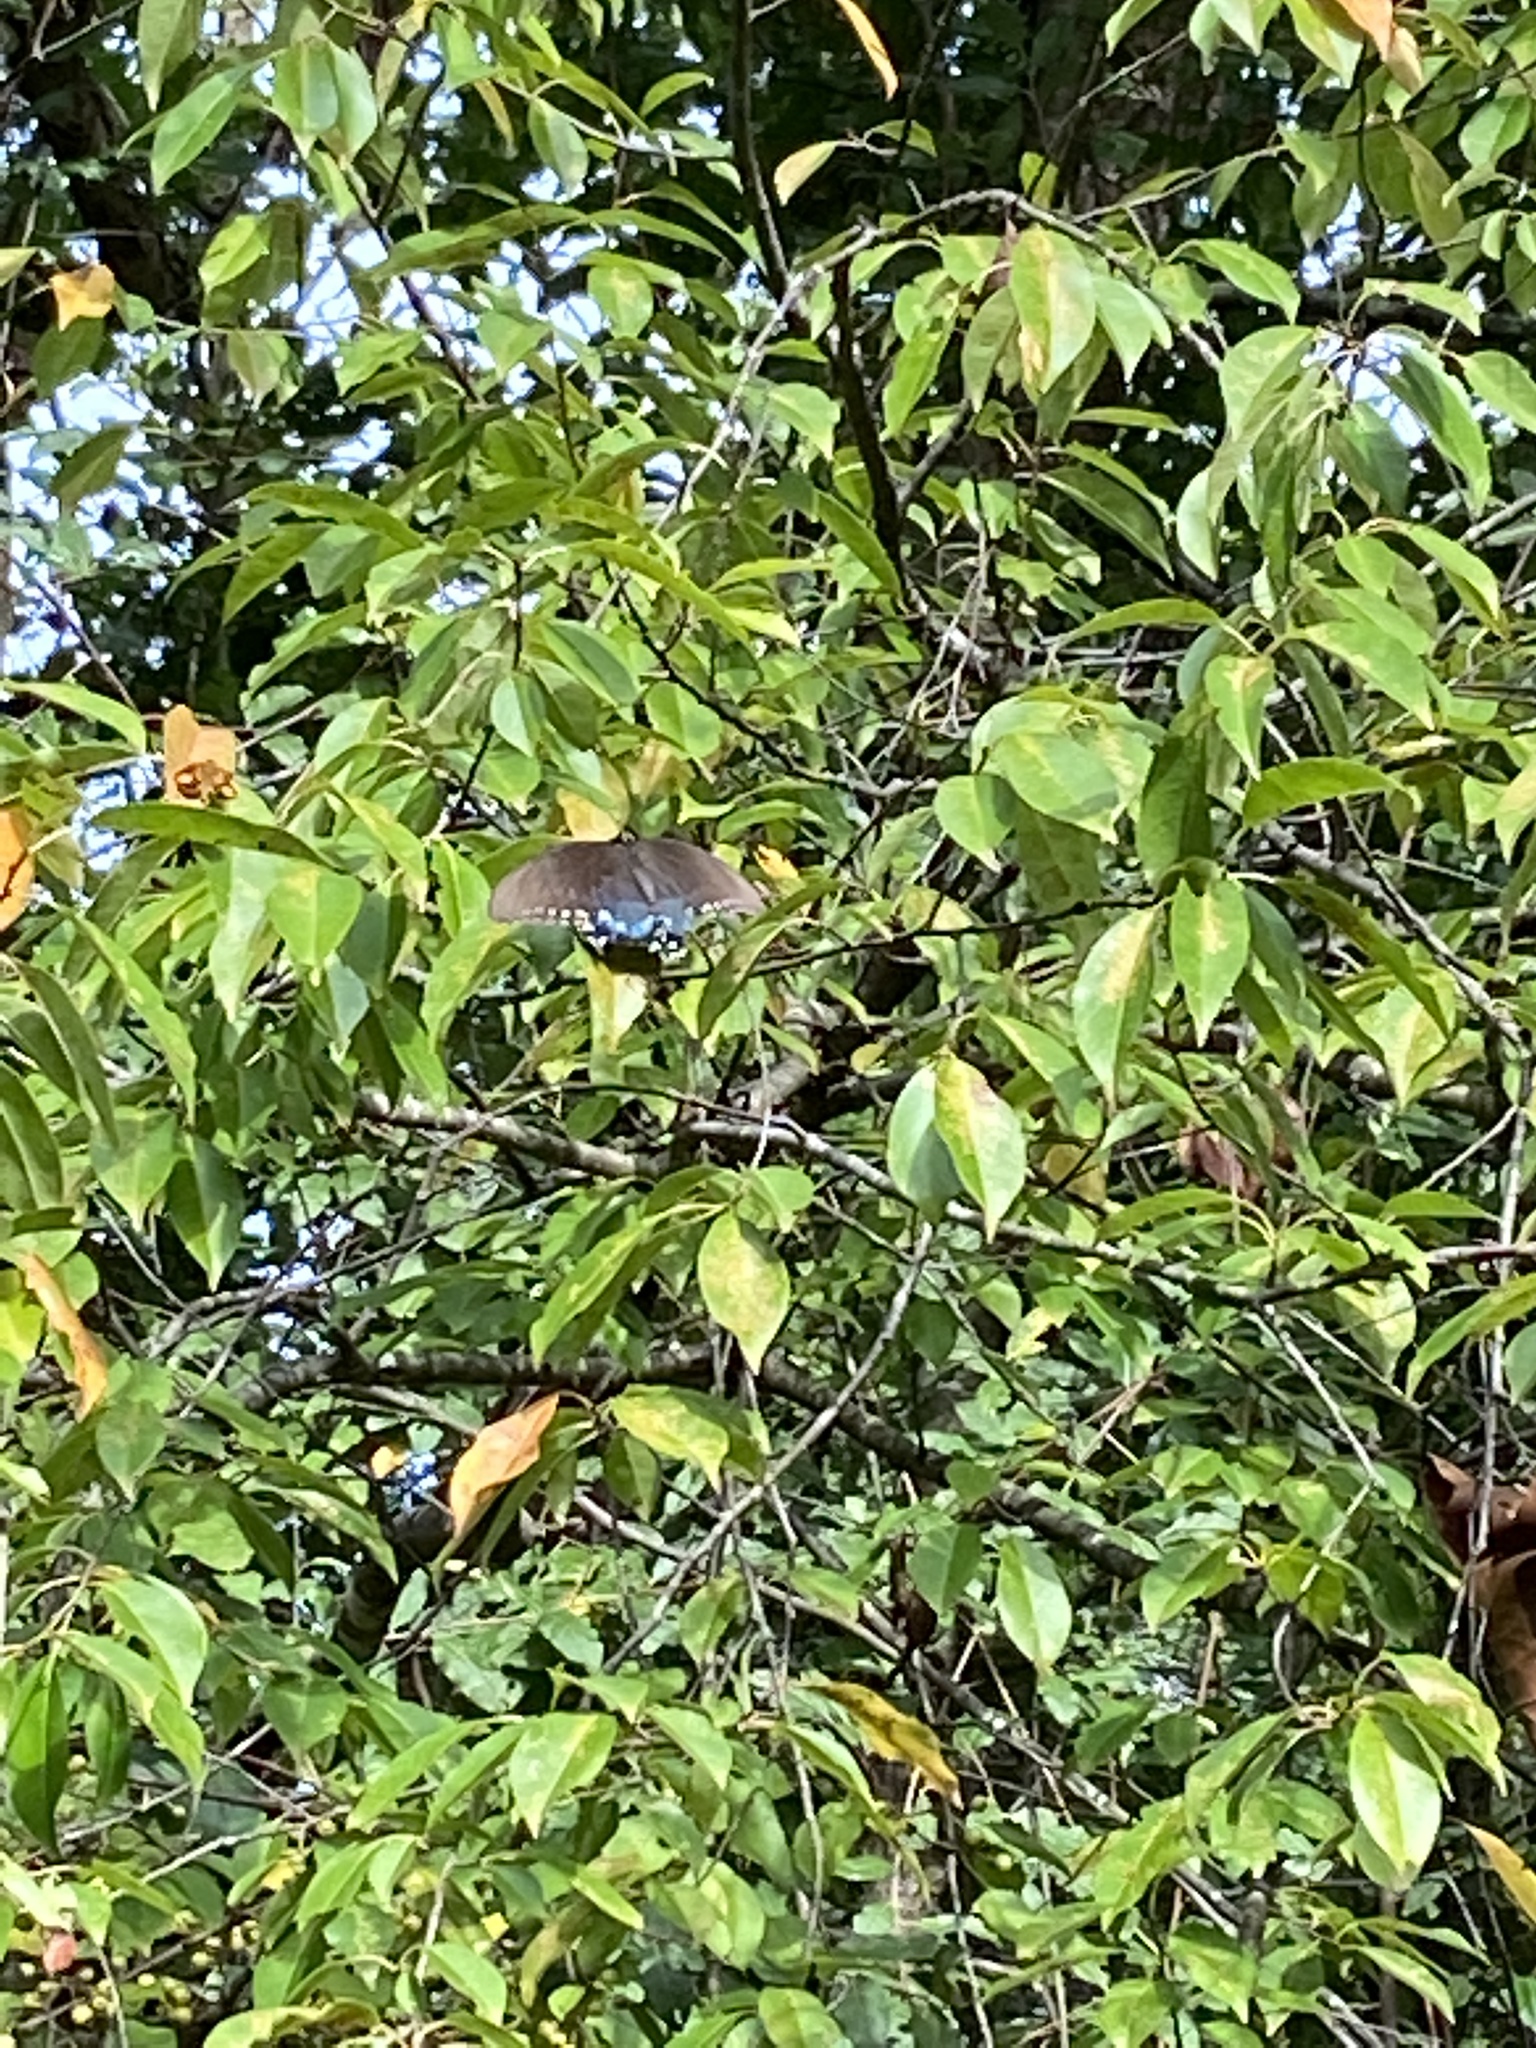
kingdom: Animalia
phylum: Arthropoda
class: Insecta
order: Lepidoptera
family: Papilionidae
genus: Papilio
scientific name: Papilio troilus
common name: Spicebush swallowtail
